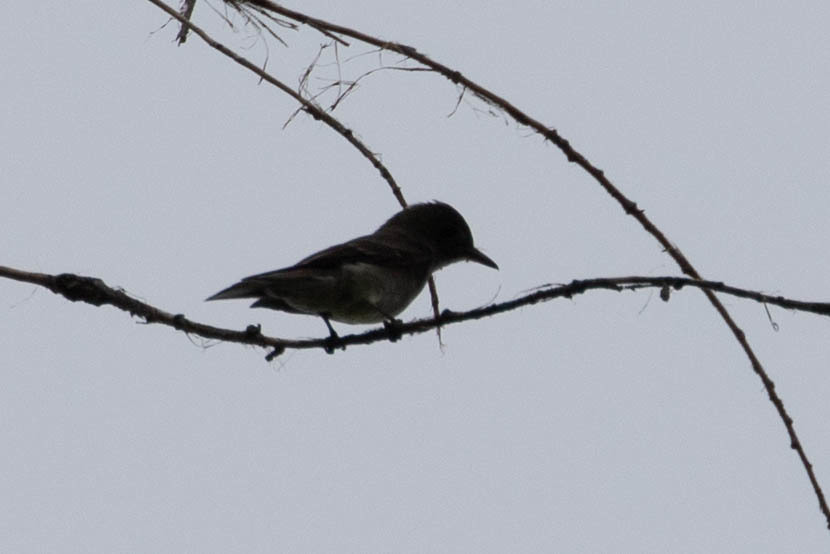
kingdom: Animalia
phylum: Chordata
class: Aves
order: Passeriformes
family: Tyrannidae
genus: Contopus
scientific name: Contopus sordidulus
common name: Western wood-pewee
